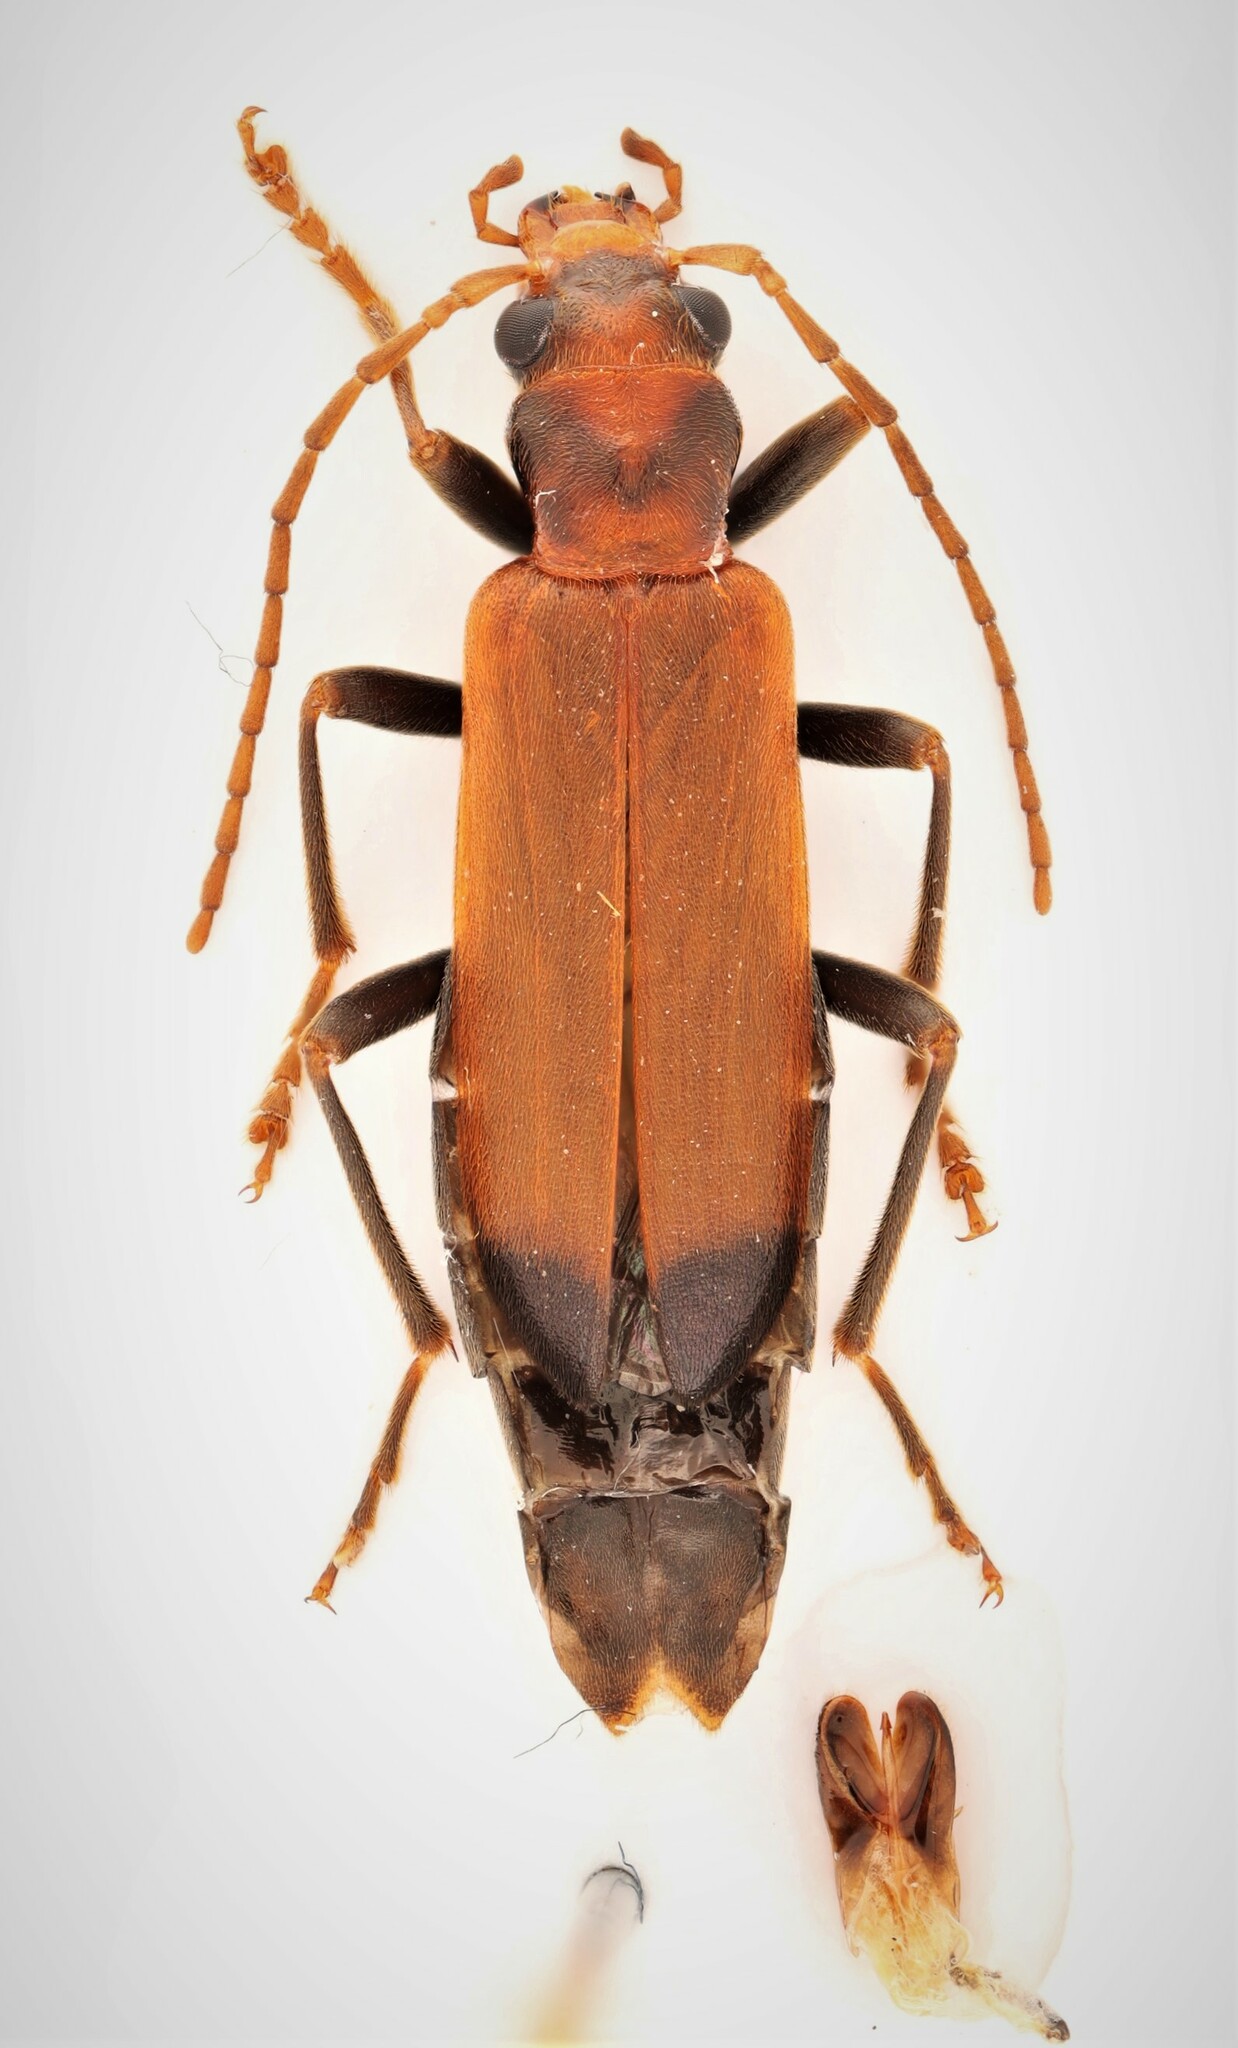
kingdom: Animalia
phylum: Arthropoda
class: Insecta
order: Coleoptera
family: Oedemeridae
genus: Nacerdes
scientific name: Nacerdes melanura
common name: Wharf borer
